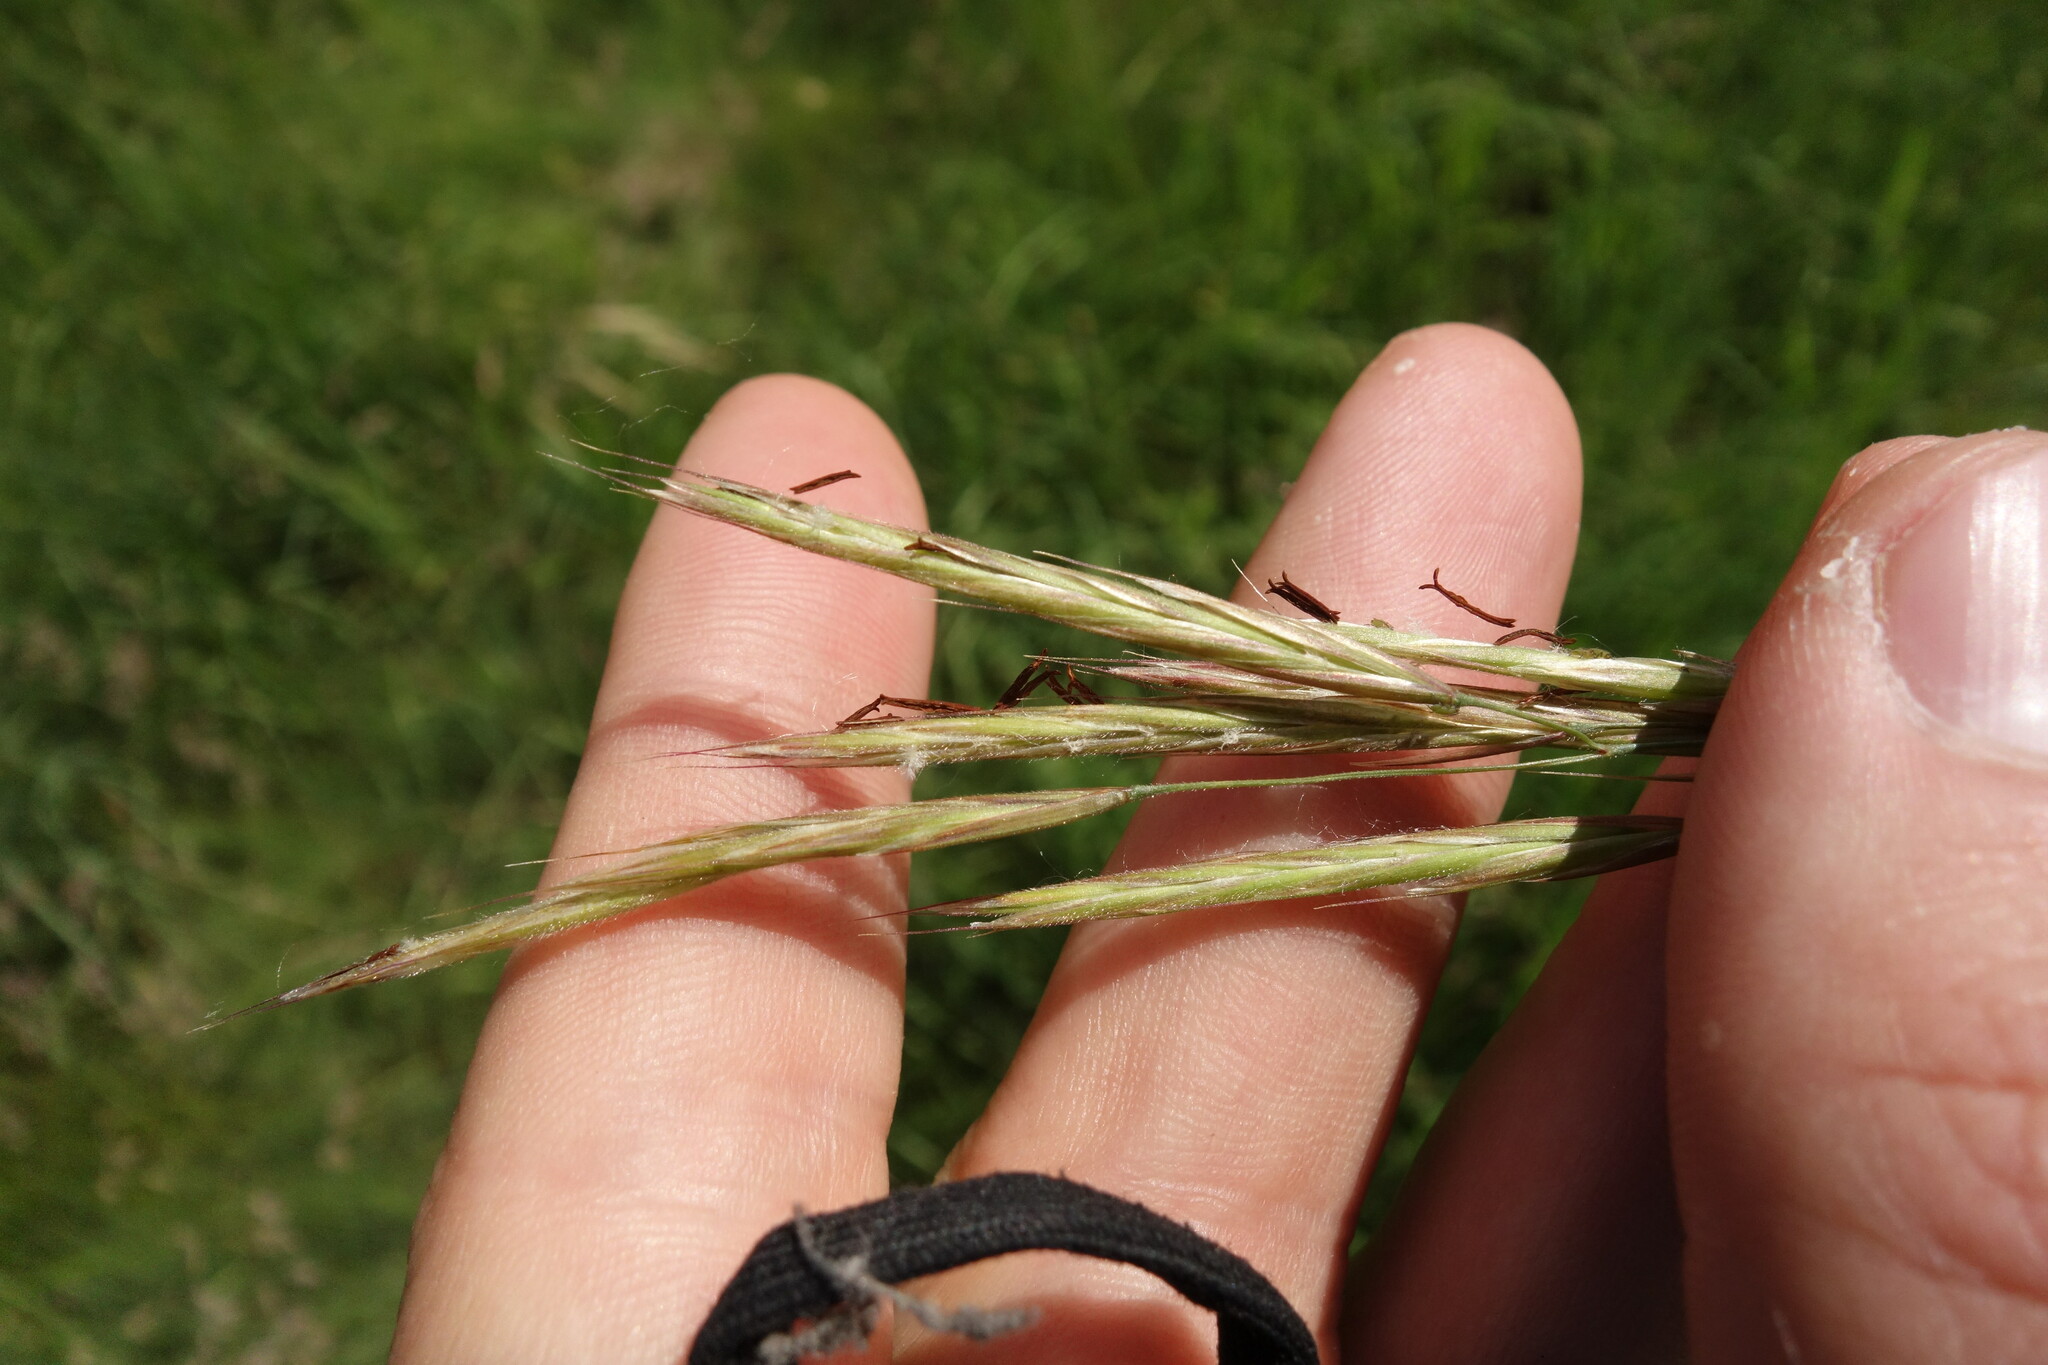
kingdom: Plantae
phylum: Tracheophyta
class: Liliopsida
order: Poales
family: Poaceae
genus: Bromus
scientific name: Bromus riparius
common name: Meadow brome
